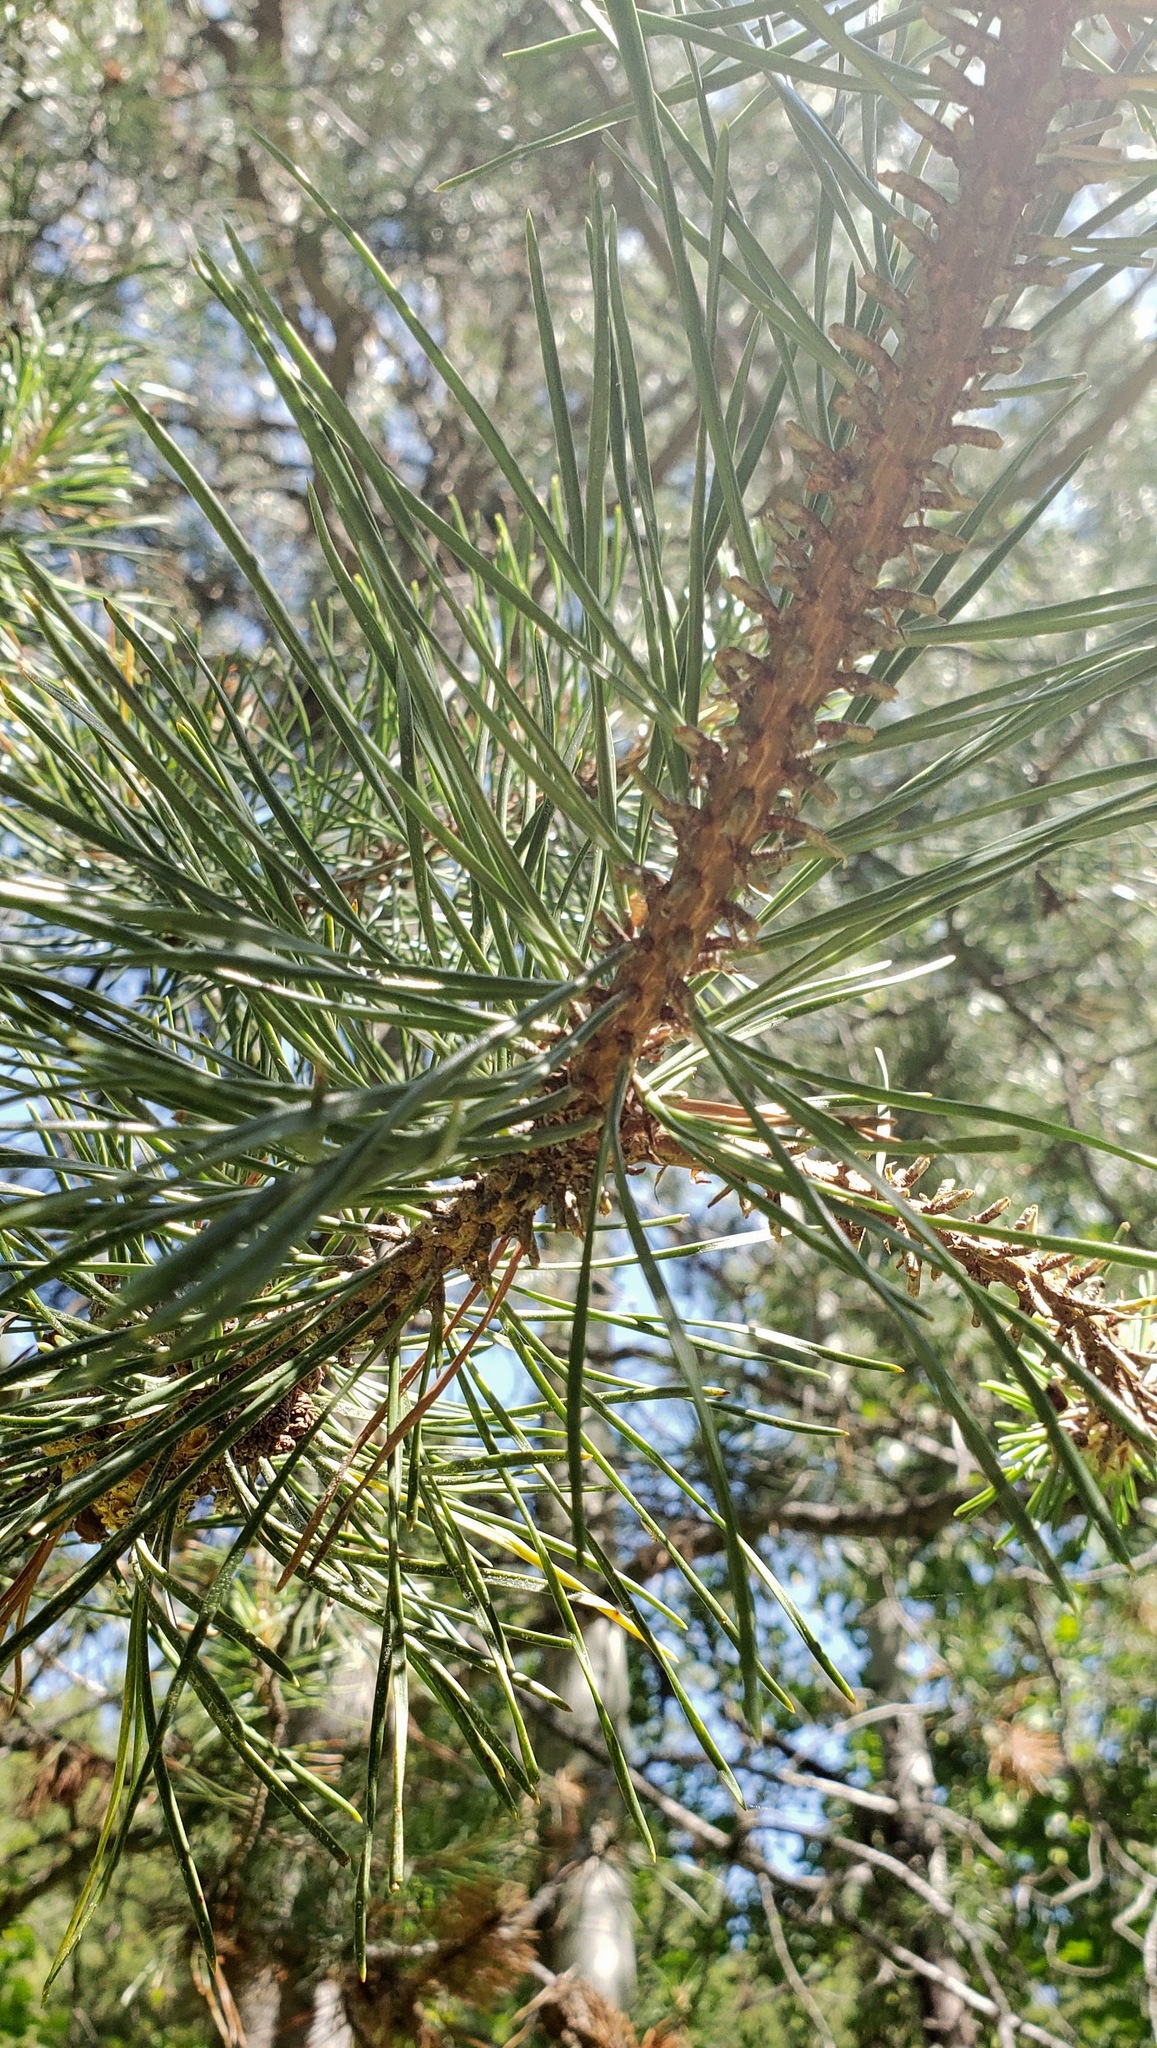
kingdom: Plantae
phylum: Tracheophyta
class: Pinopsida
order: Pinales
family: Pinaceae
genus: Pinus
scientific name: Pinus contorta
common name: Lodgepole pine
